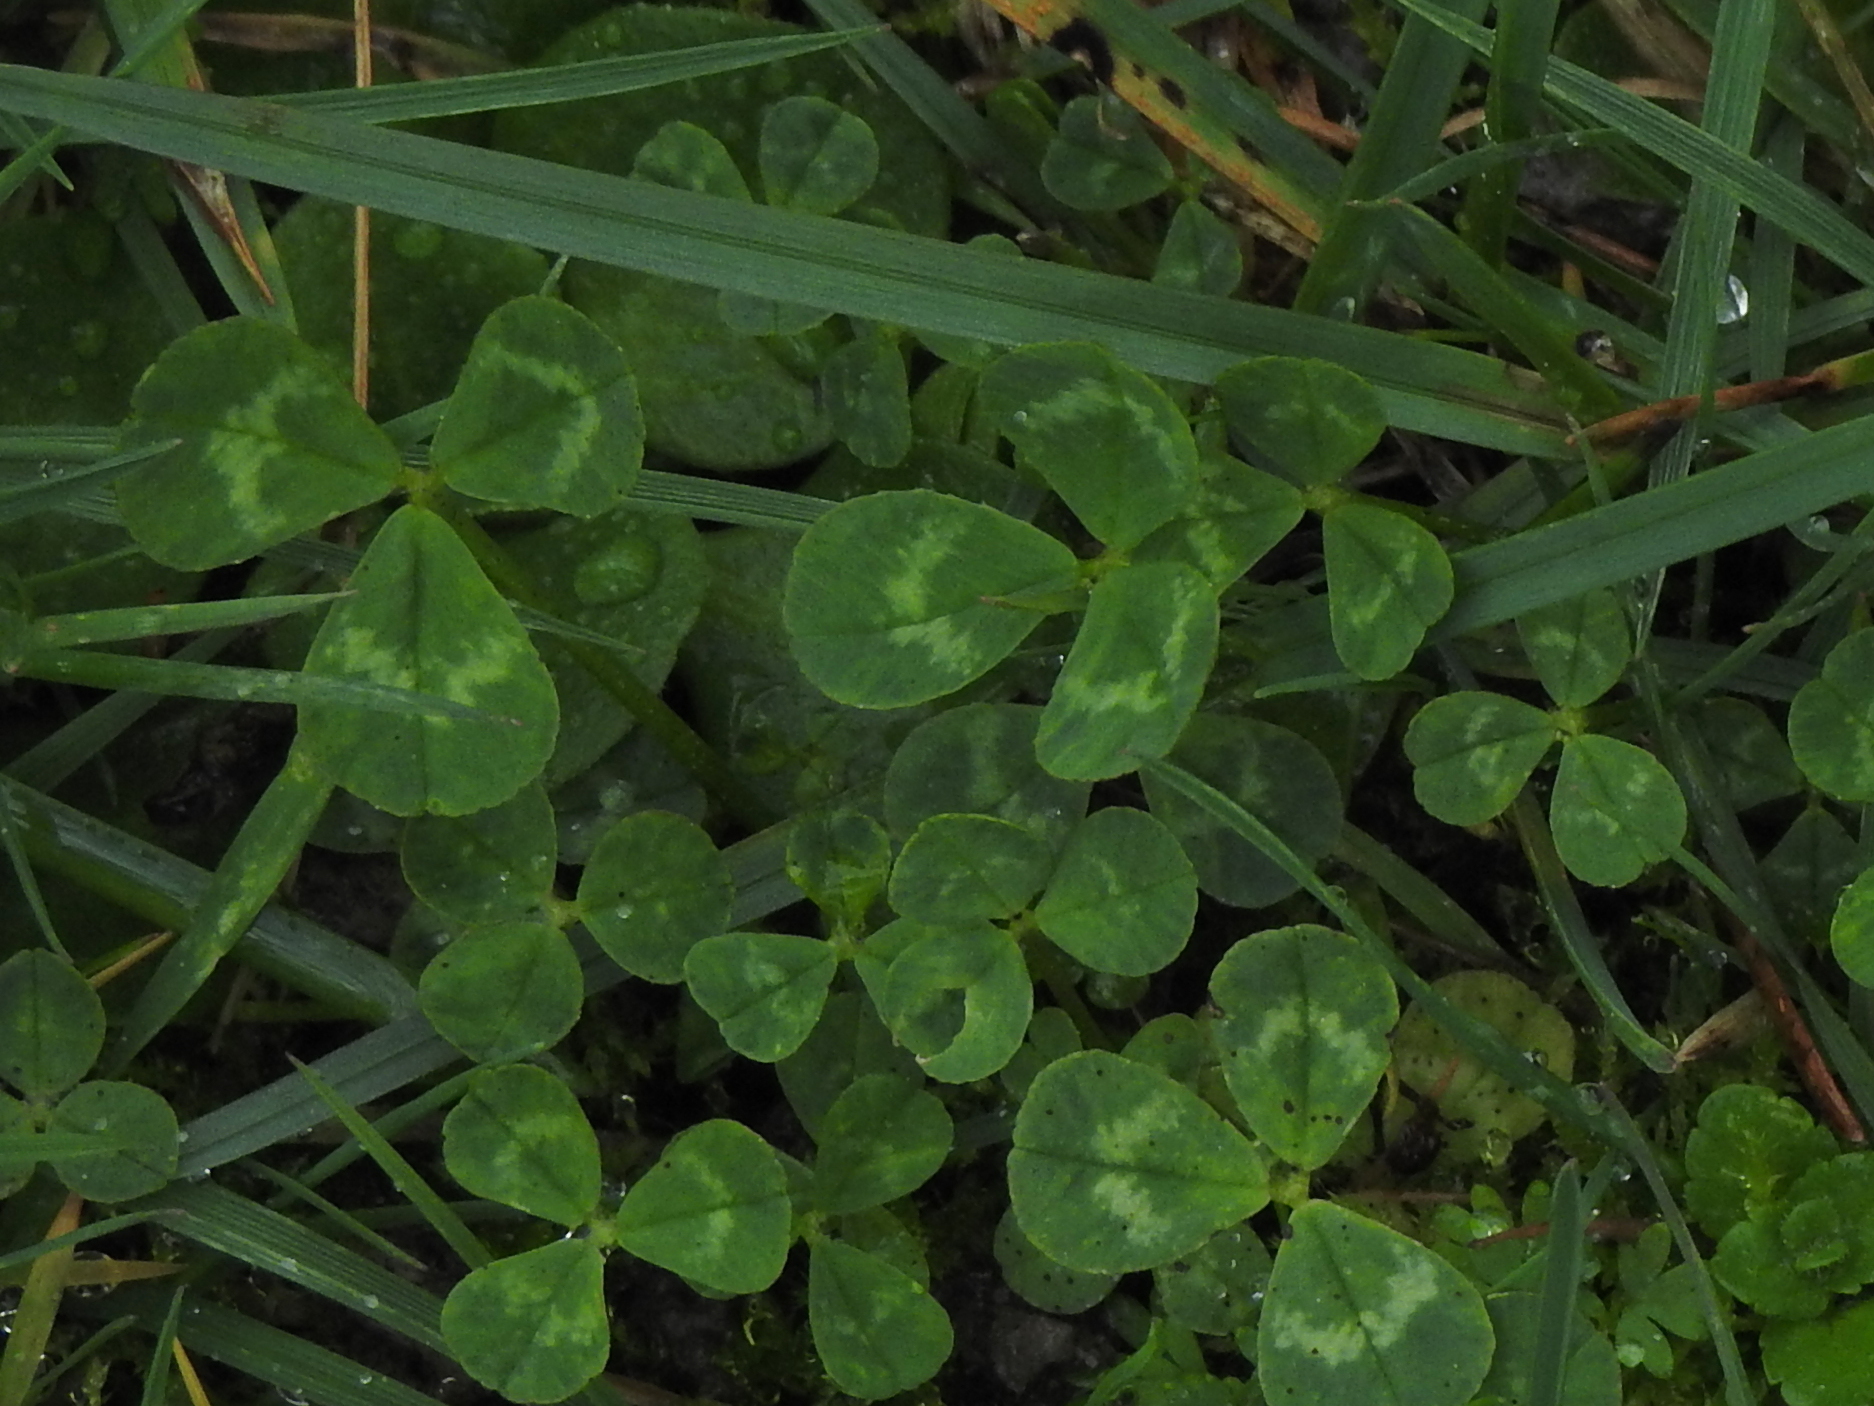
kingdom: Plantae
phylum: Tracheophyta
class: Magnoliopsida
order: Fabales
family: Fabaceae
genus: Trifolium
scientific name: Trifolium repens
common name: White clover
